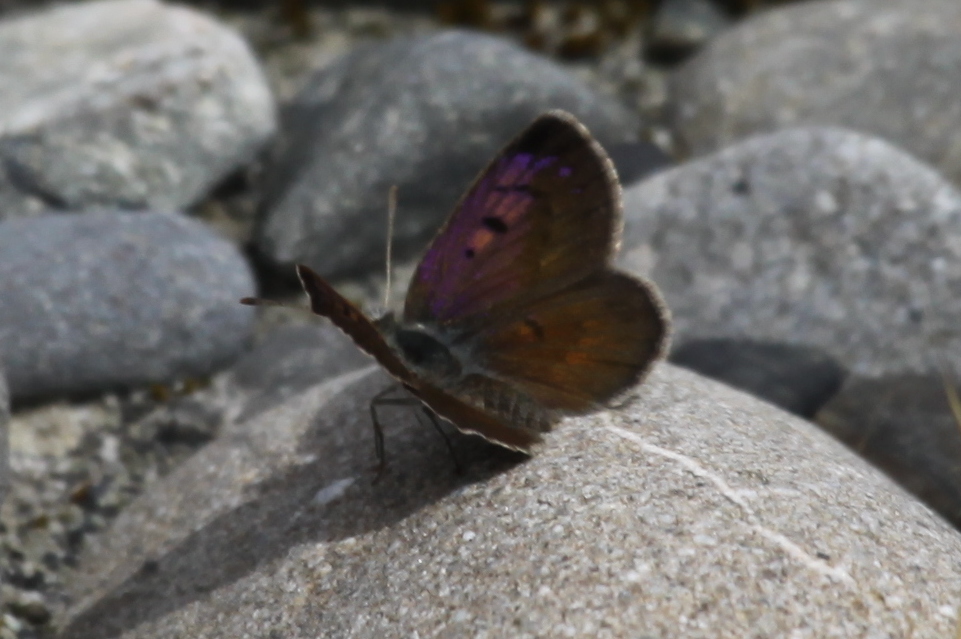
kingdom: Animalia
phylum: Arthropoda
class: Insecta
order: Lepidoptera
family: Lycaenidae
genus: Lycaena
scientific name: Lycaena boldenarum
